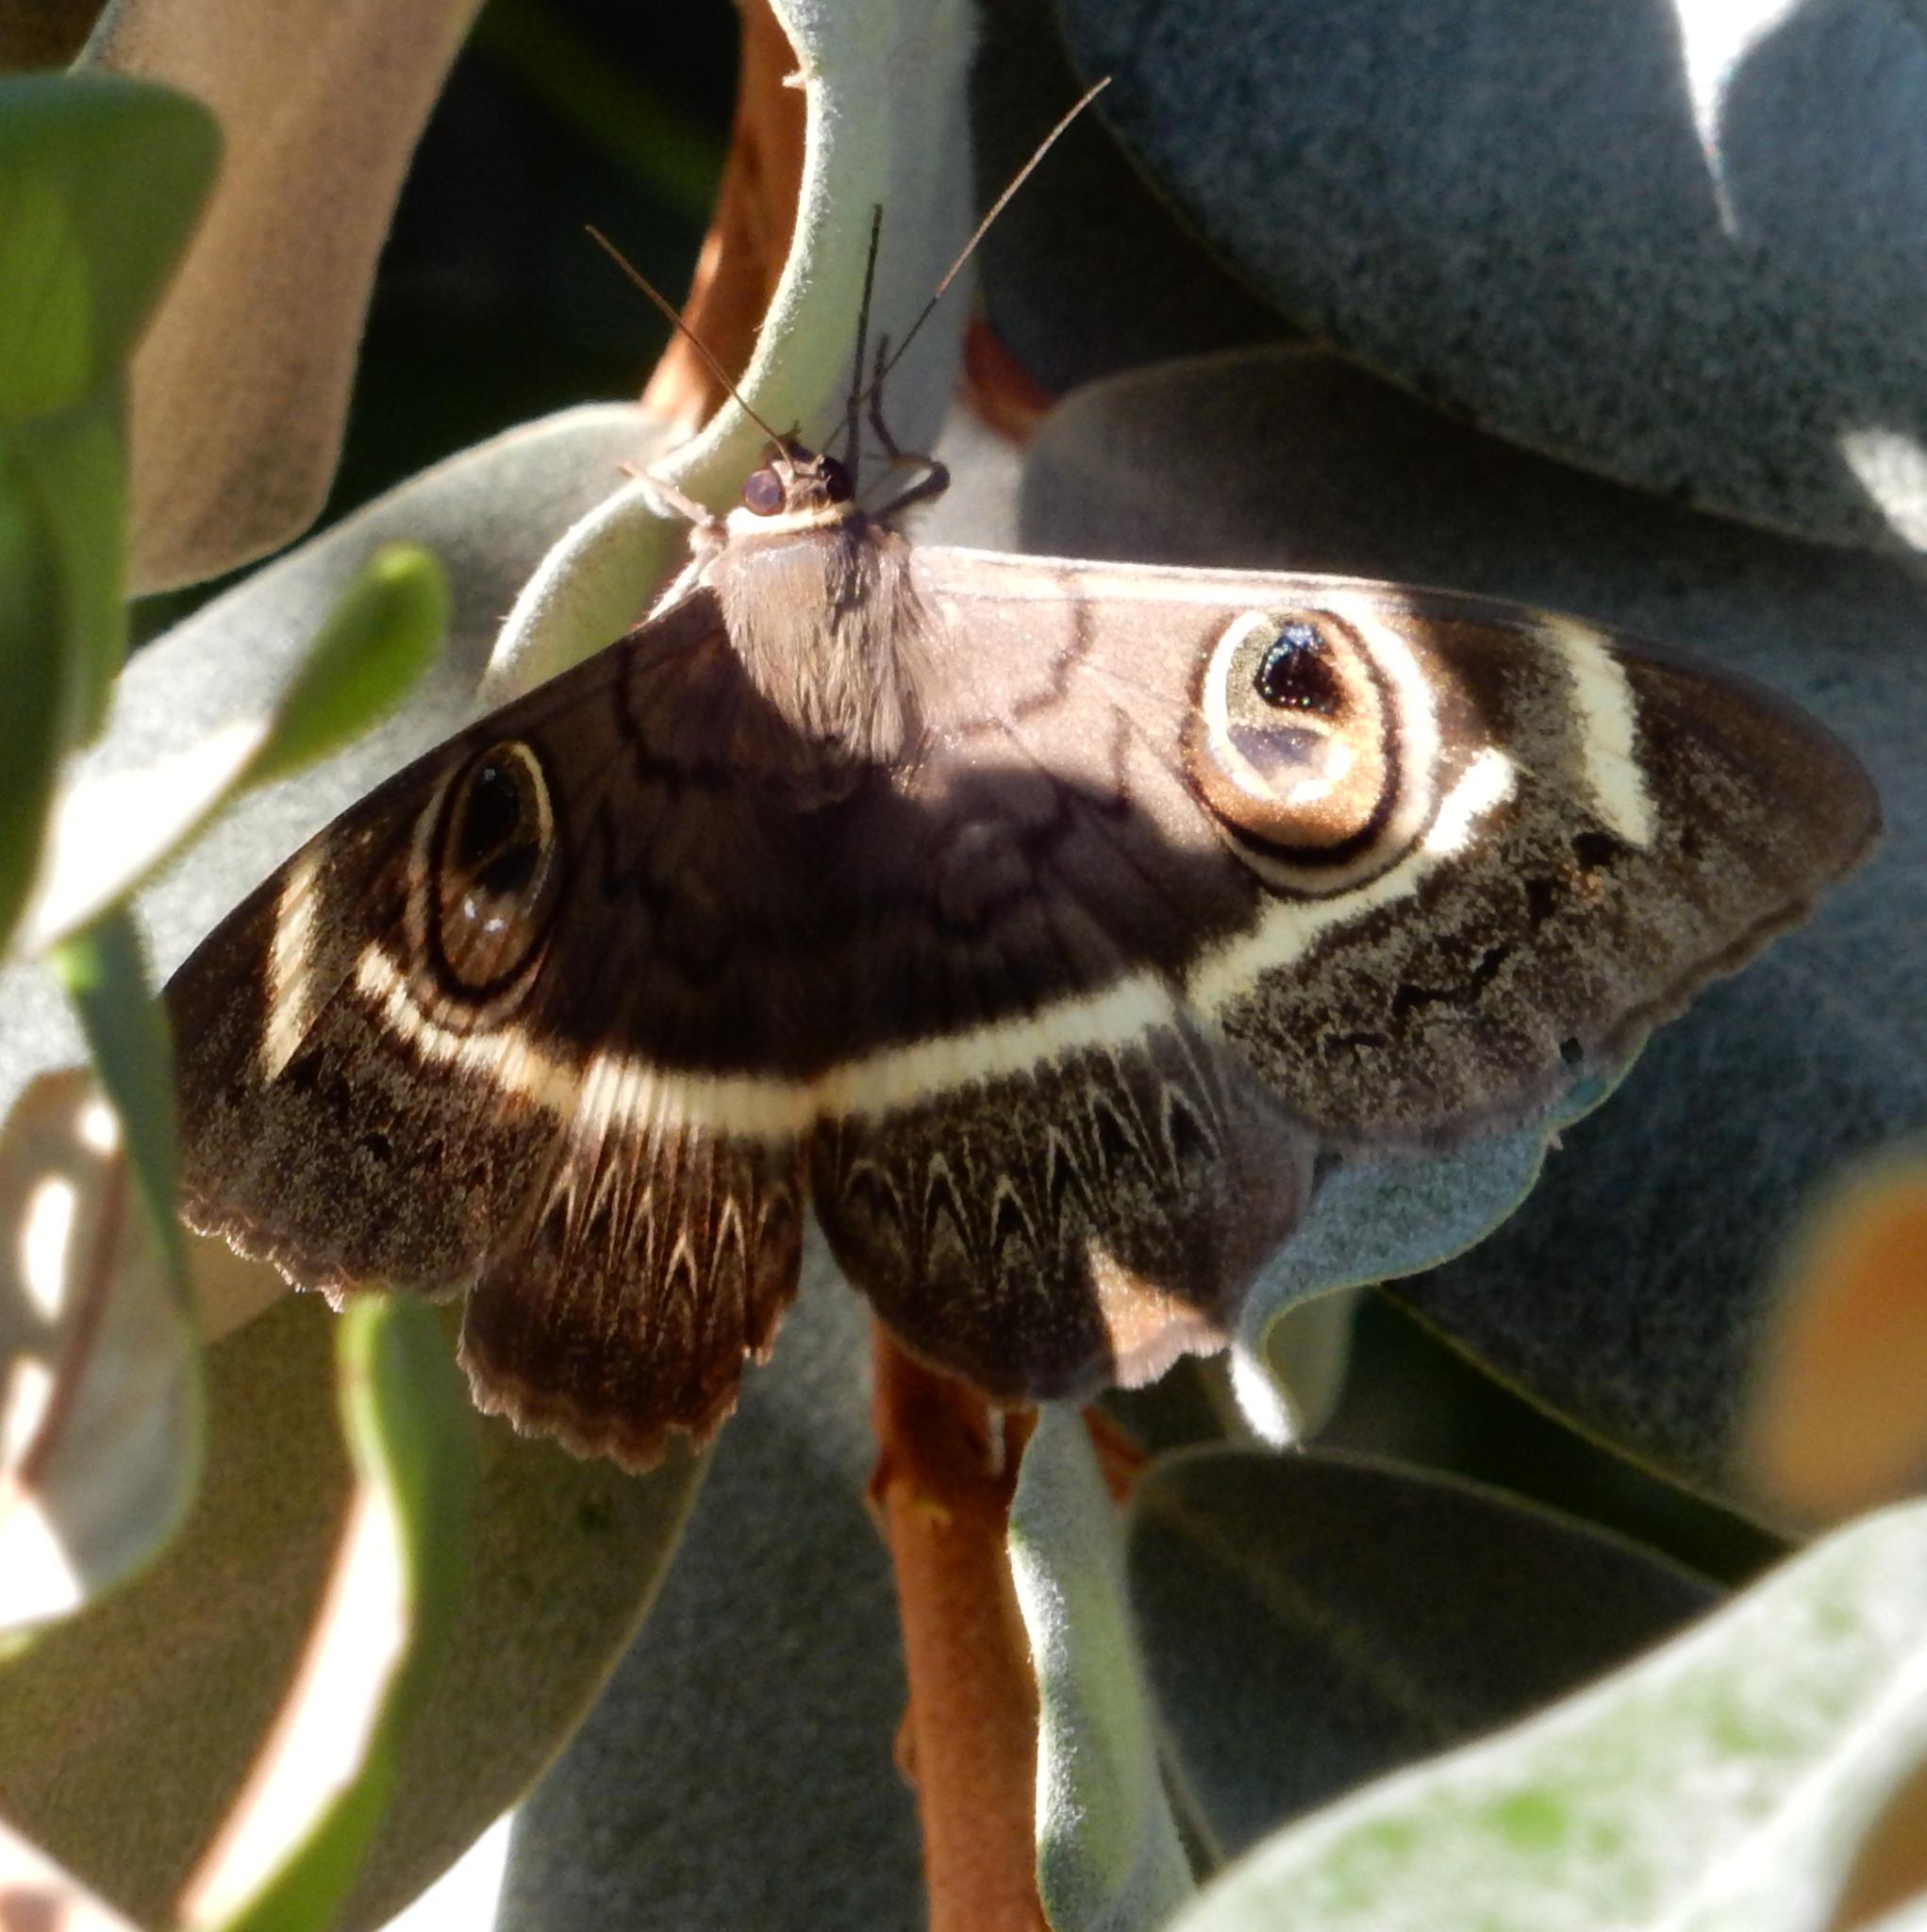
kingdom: Animalia
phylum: Arthropoda
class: Insecta
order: Lepidoptera
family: Erebidae
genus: Cyligramma
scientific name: Cyligramma latona
